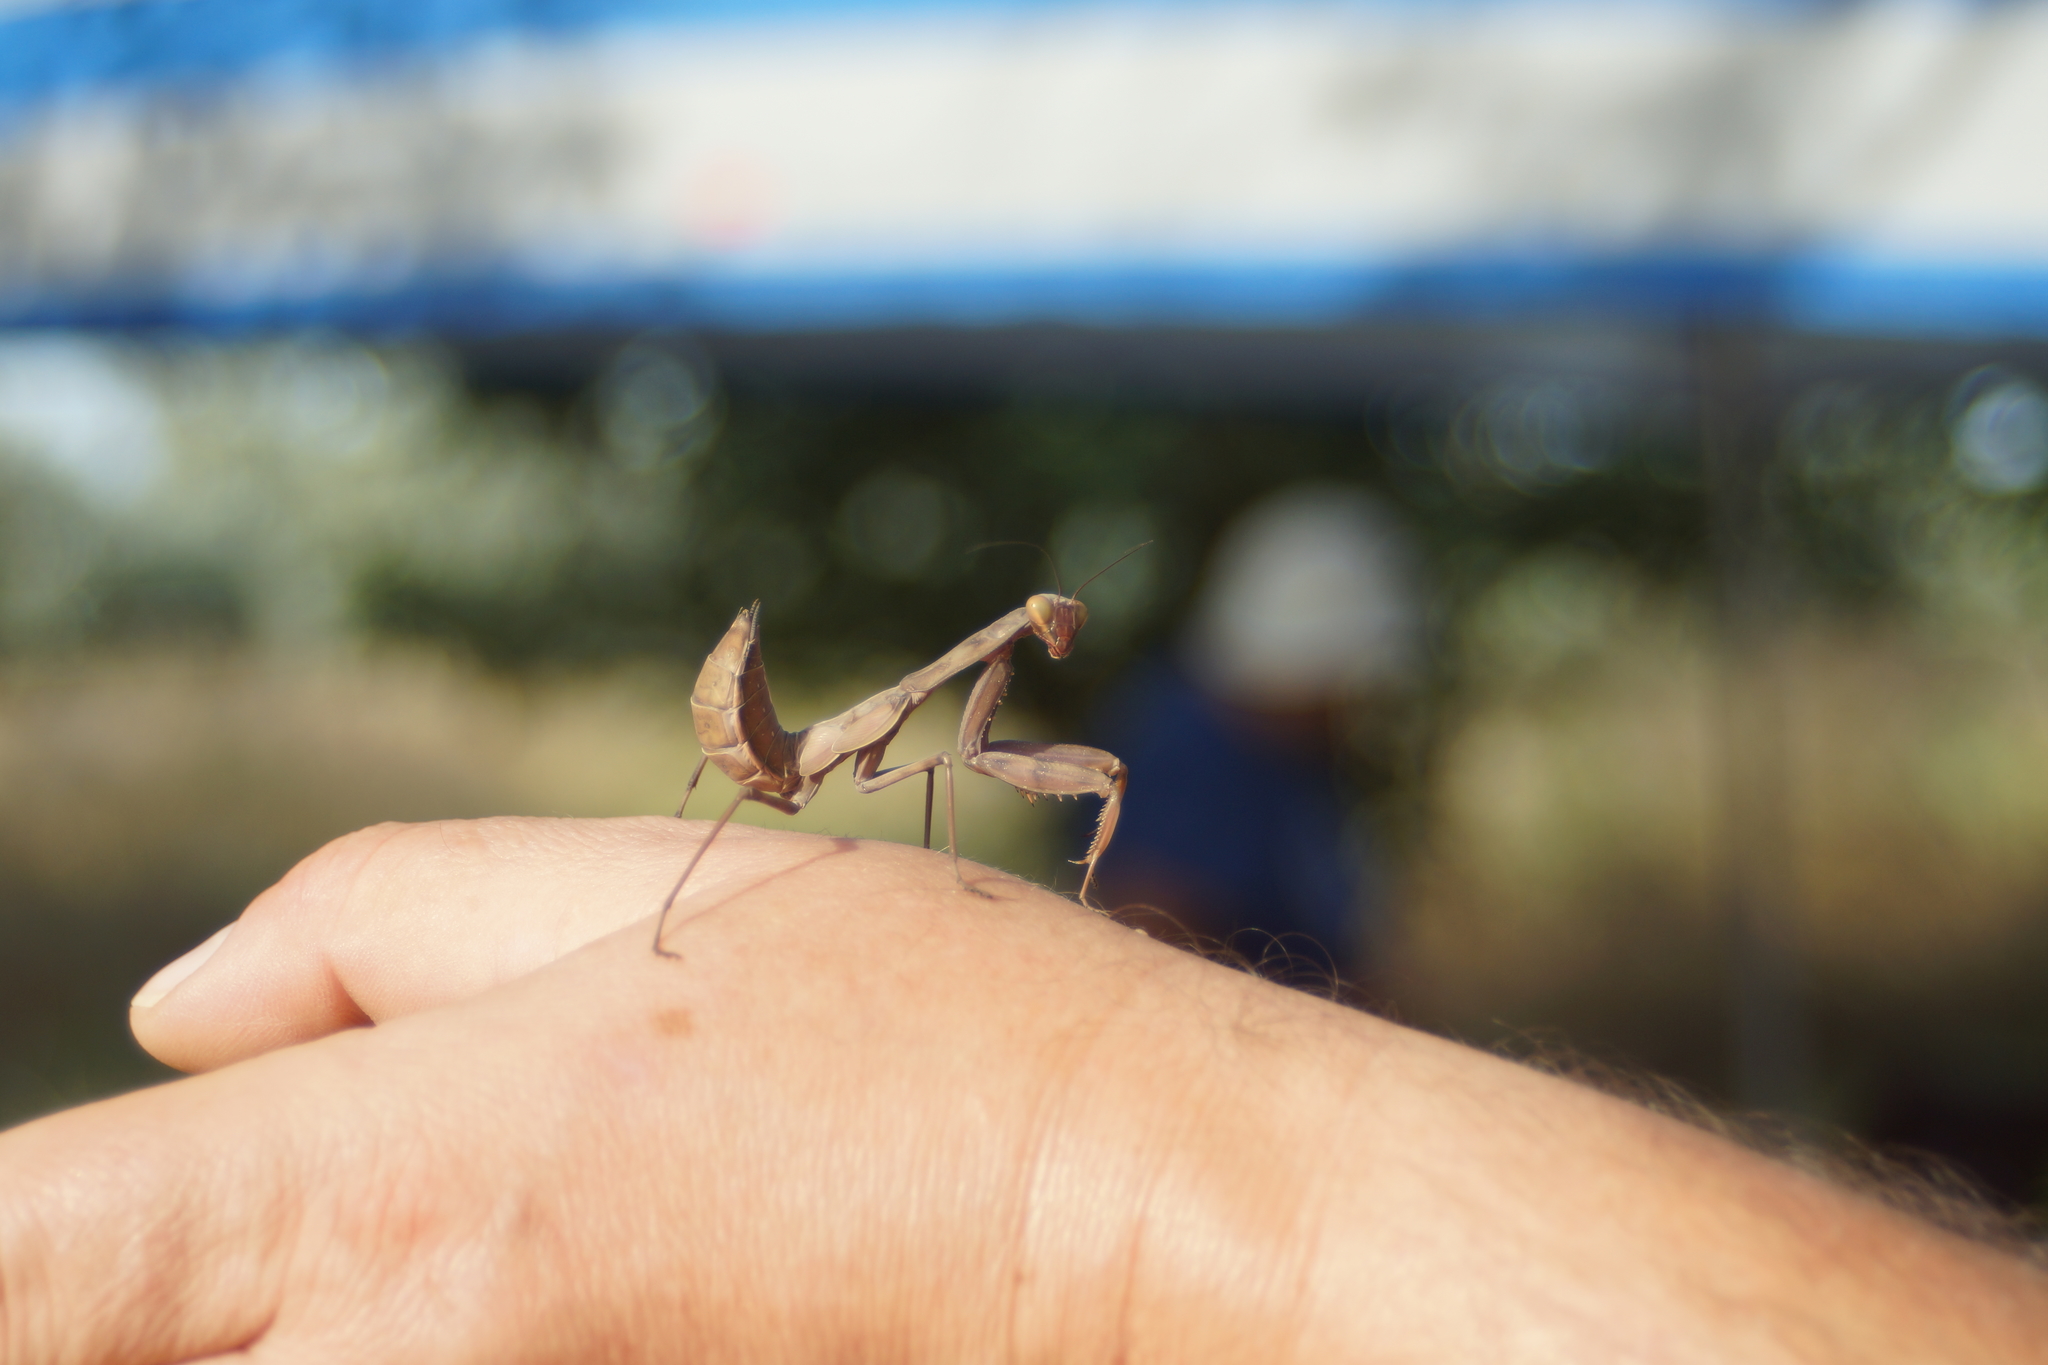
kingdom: Animalia
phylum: Arthropoda
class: Insecta
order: Mantodea
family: Mantidae
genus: Hierodula
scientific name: Hierodula transcaucasica
